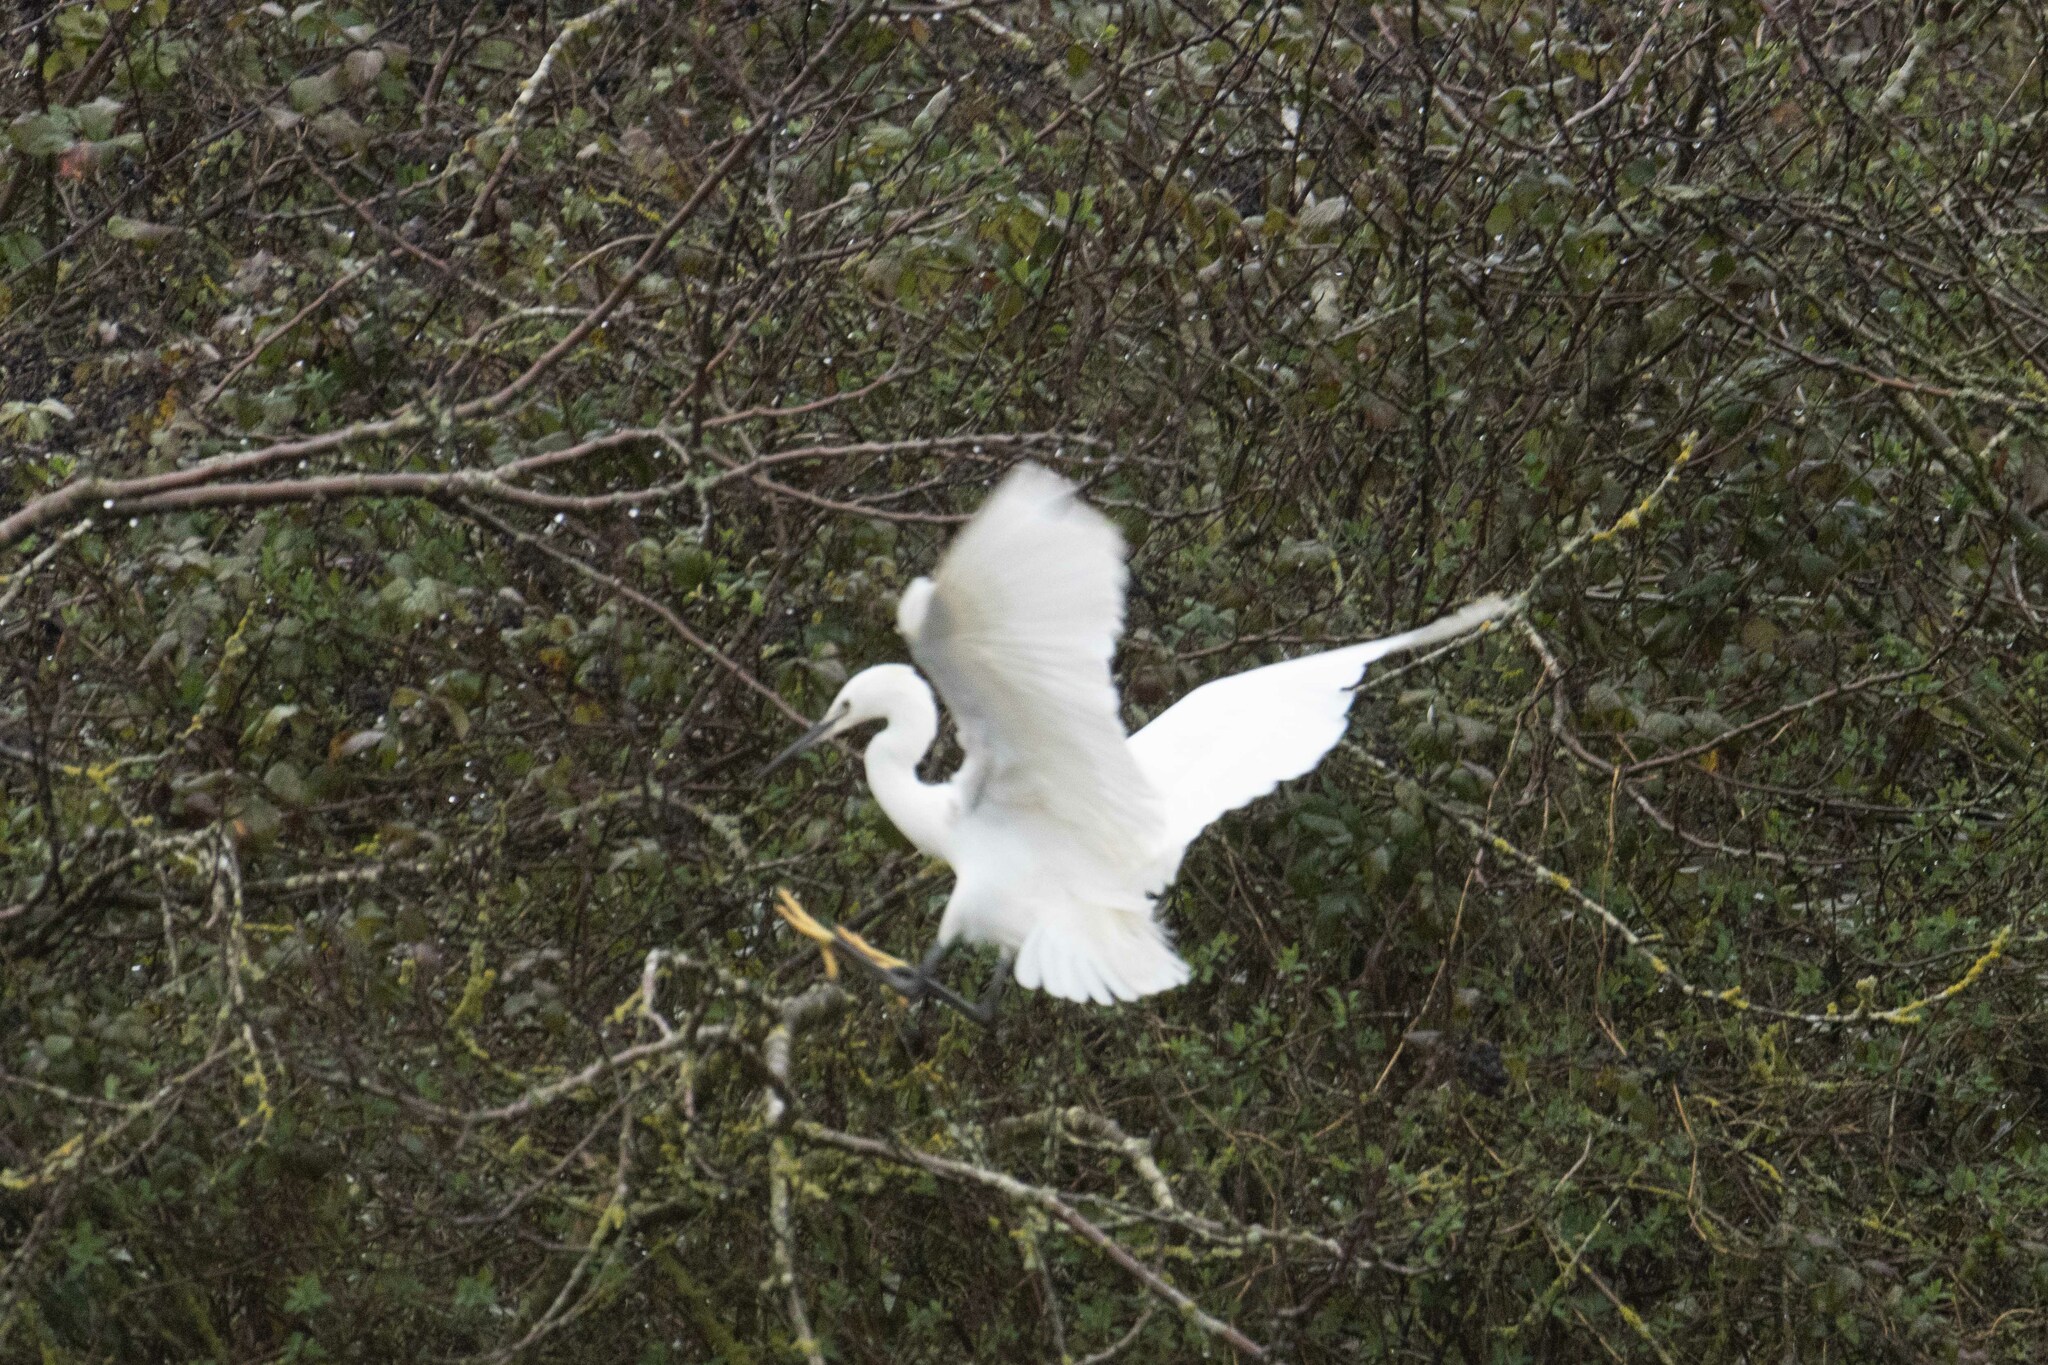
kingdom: Animalia
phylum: Chordata
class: Aves
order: Pelecaniformes
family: Ardeidae
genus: Egretta
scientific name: Egretta garzetta
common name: Little egret
